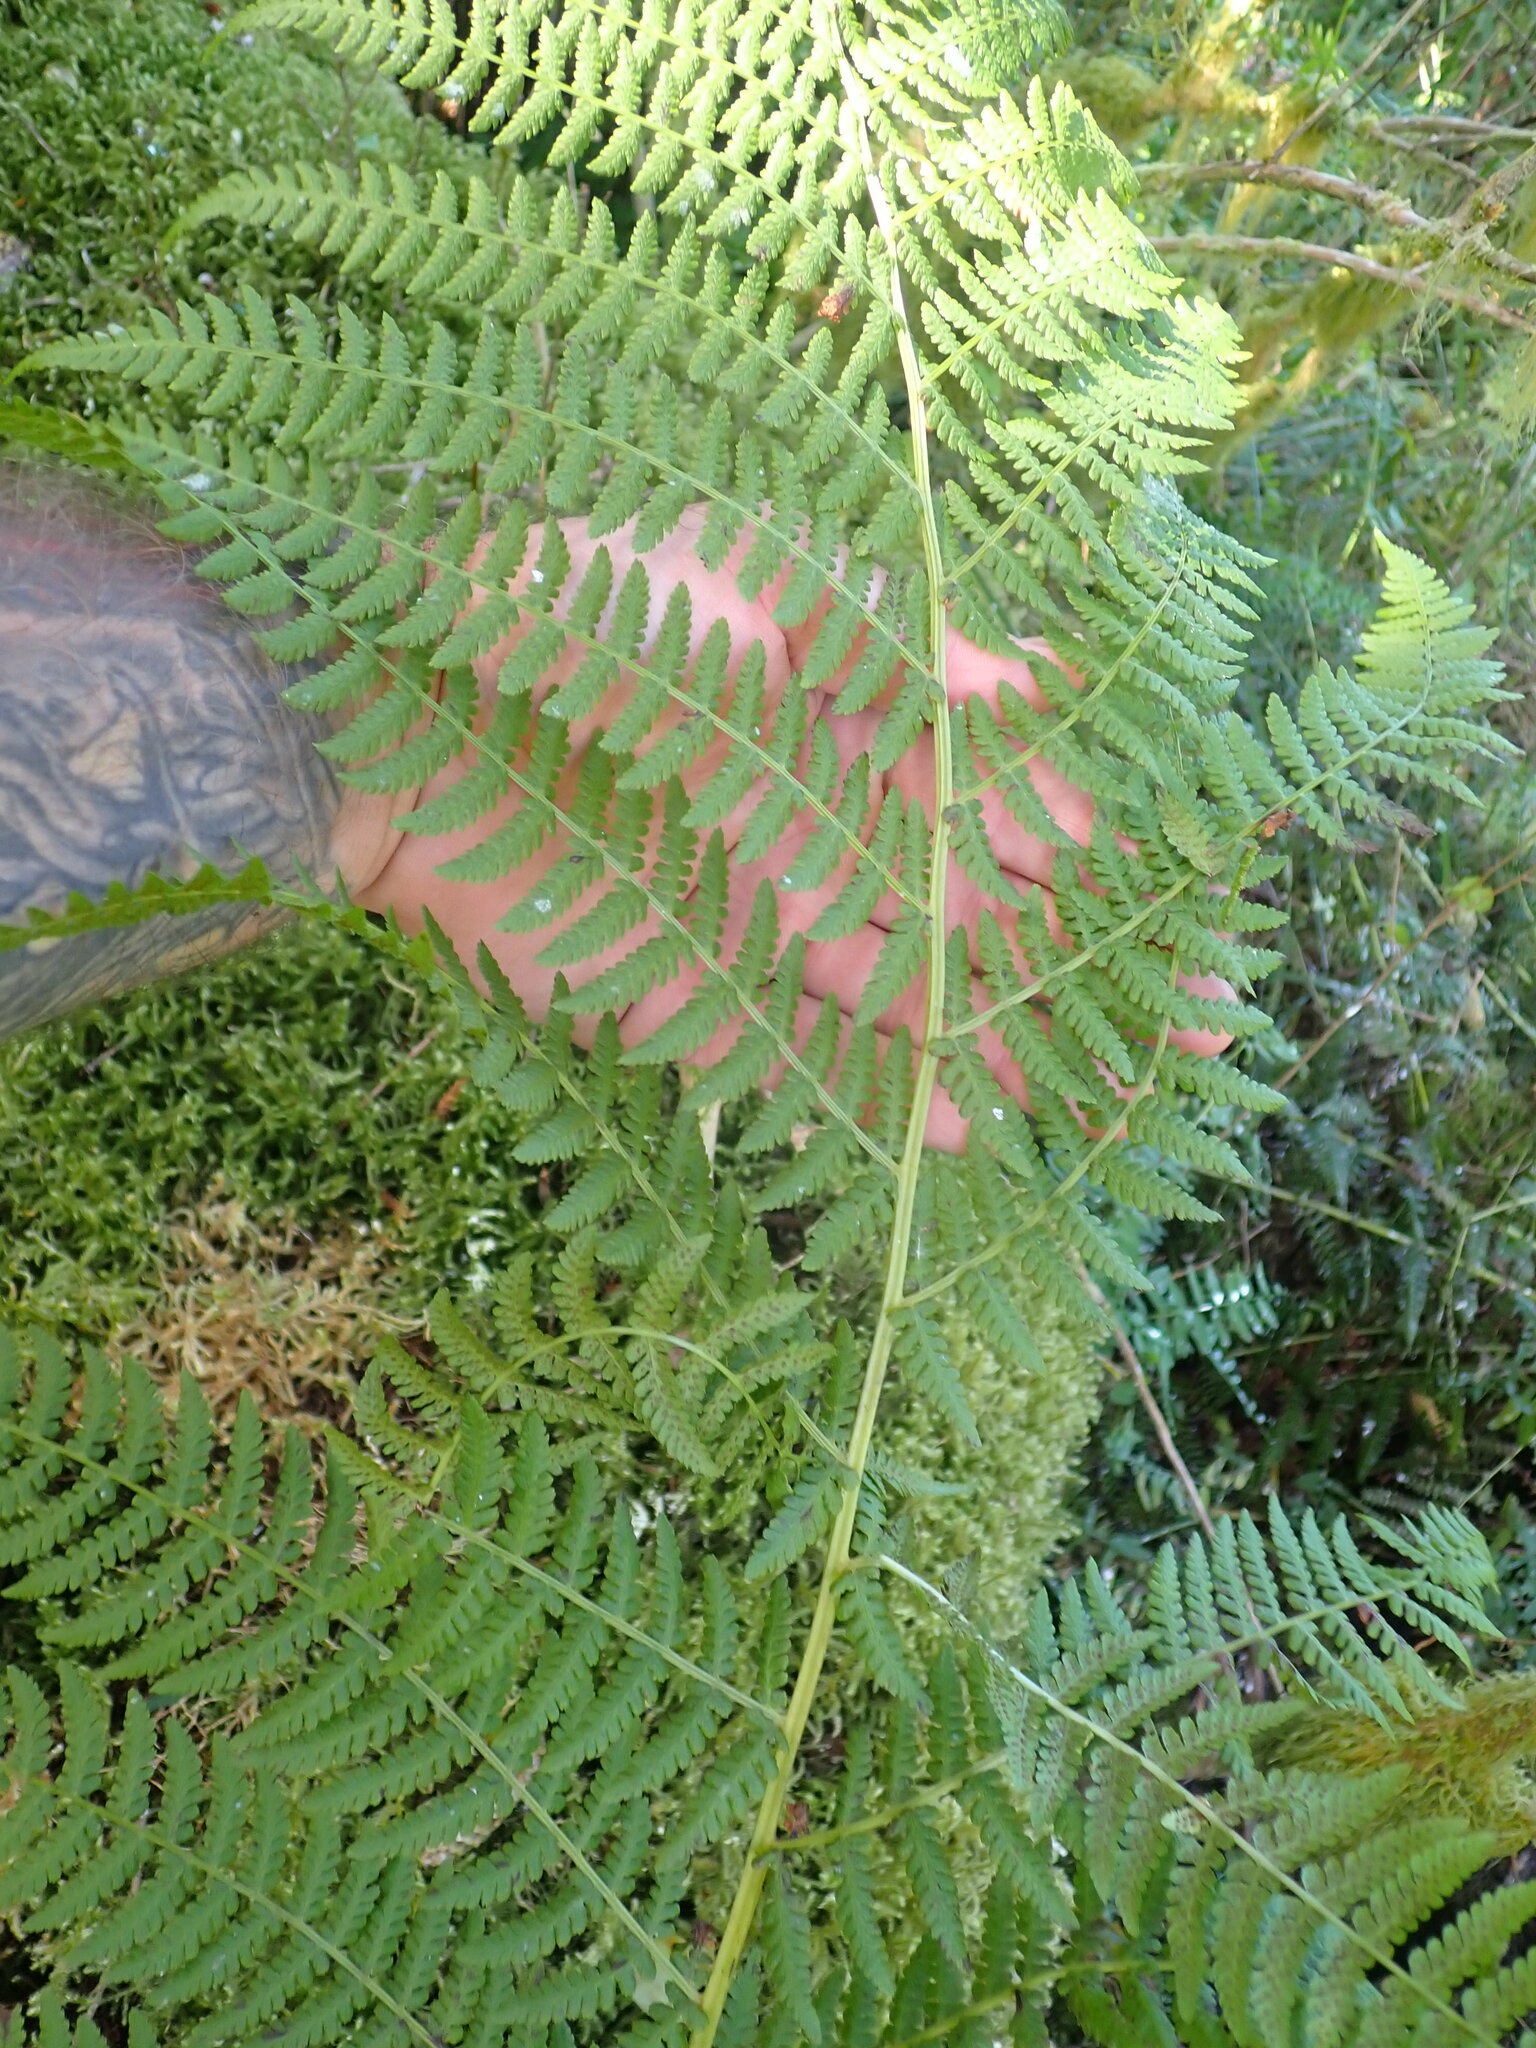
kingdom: Plantae
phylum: Tracheophyta
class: Polypodiopsida
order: Polypodiales
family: Athyriaceae
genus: Athyrium
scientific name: Athyrium filix-femina
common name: Lady fern
